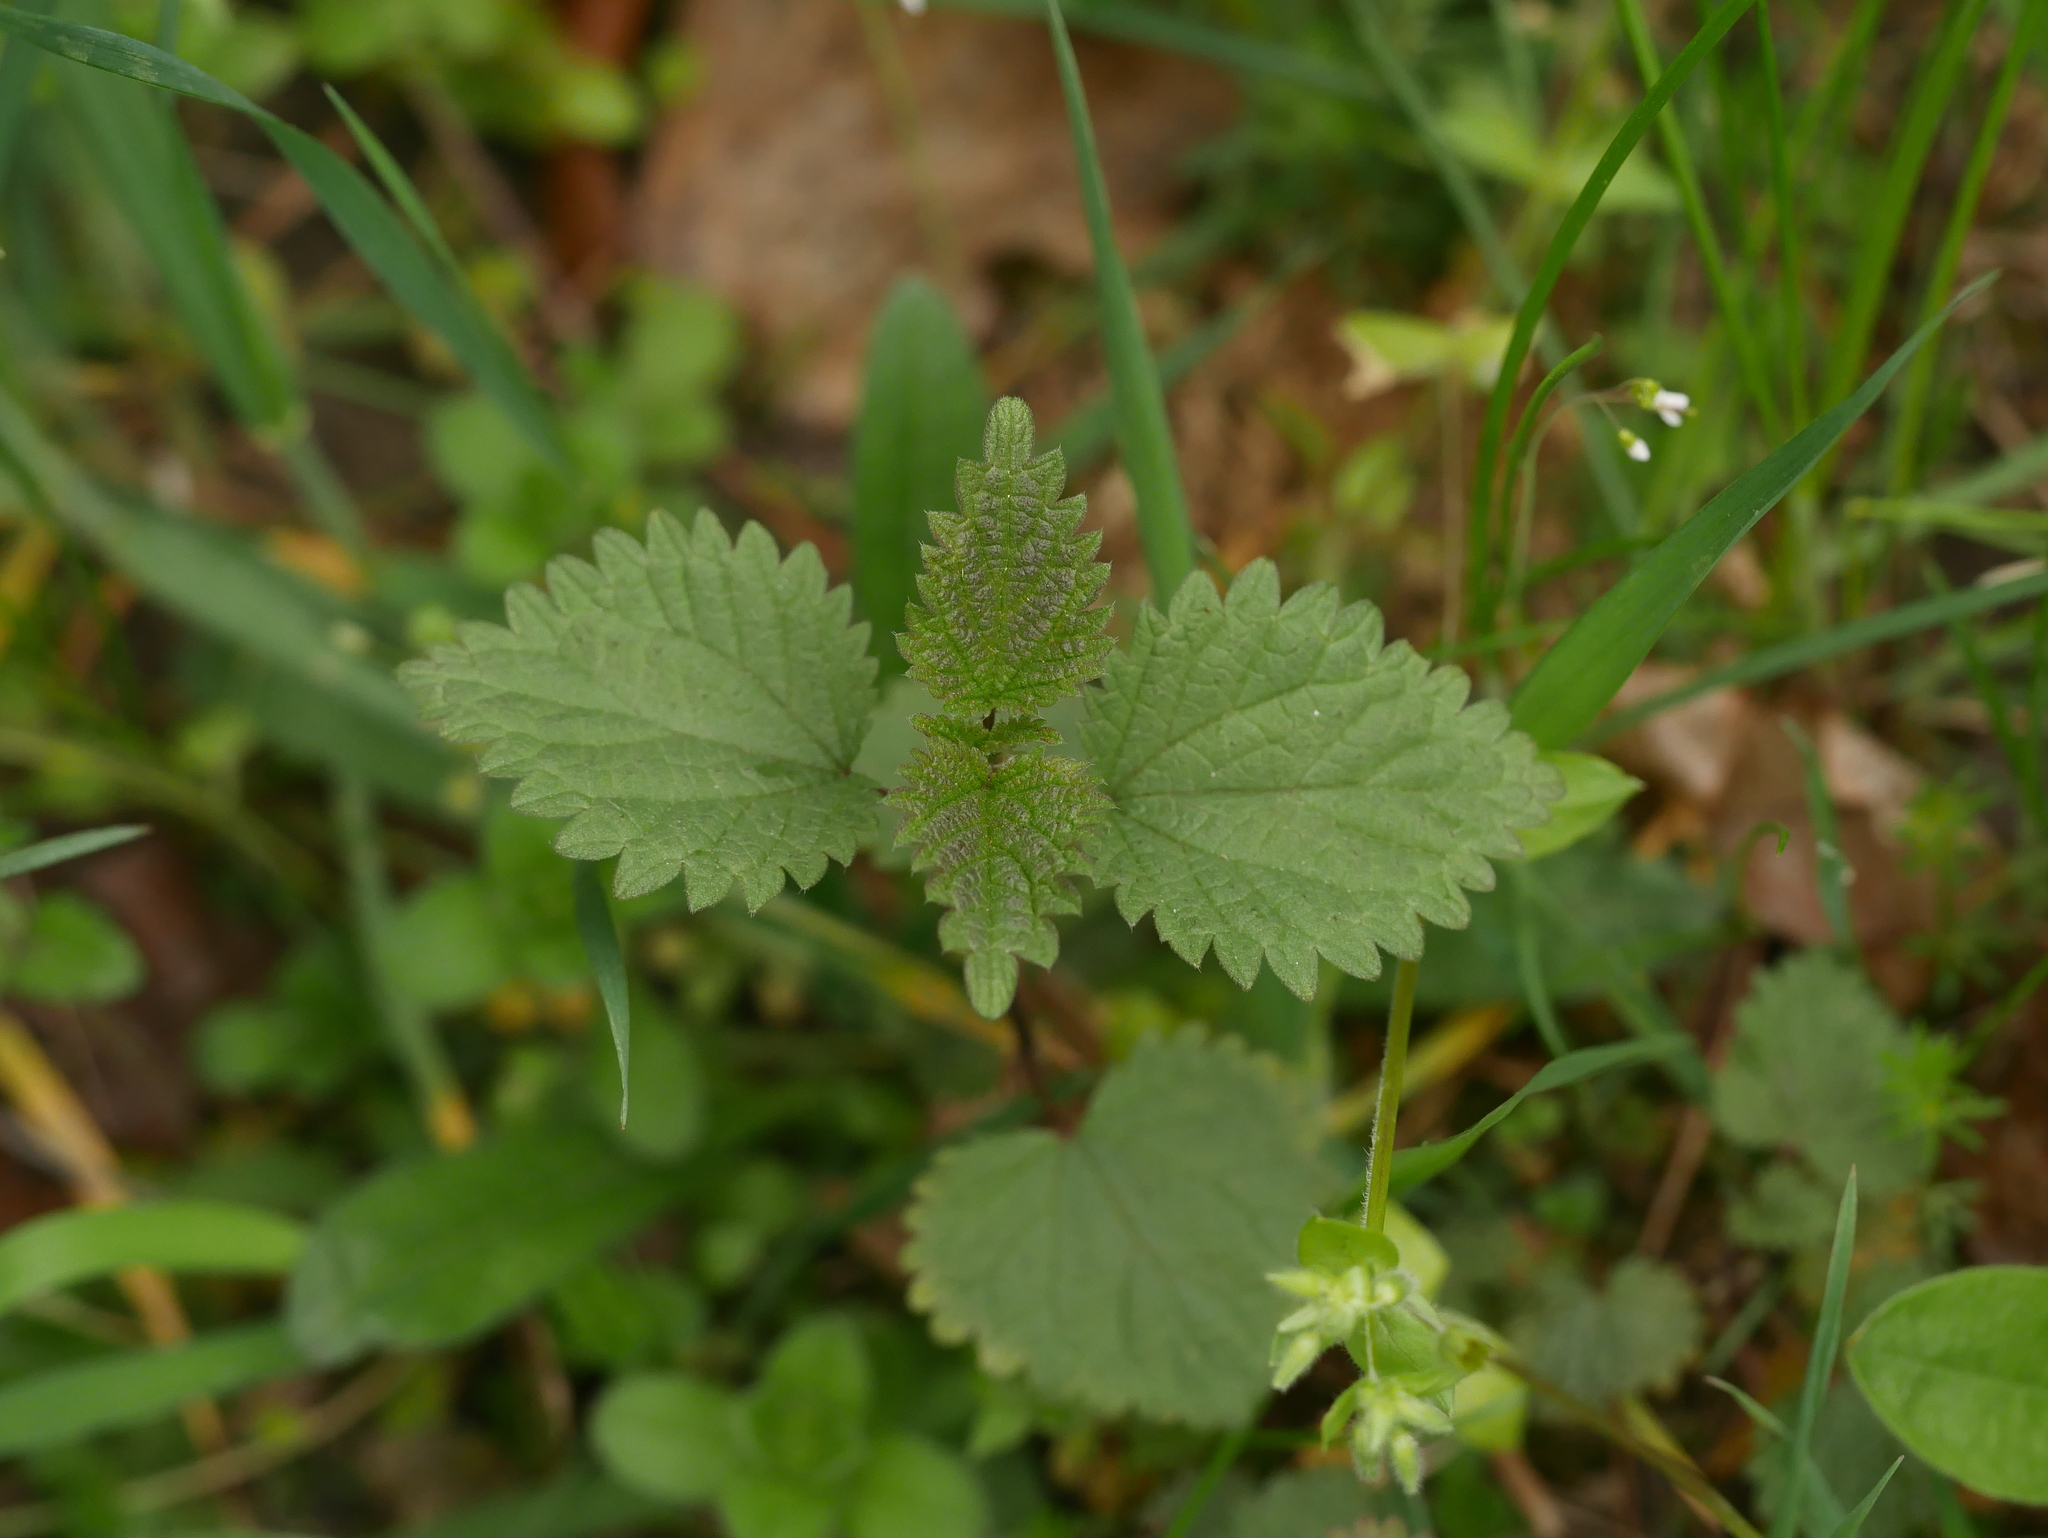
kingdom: Plantae
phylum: Tracheophyta
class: Magnoliopsida
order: Rosales
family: Urticaceae
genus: Urtica
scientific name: Urtica dioica
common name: Common nettle
